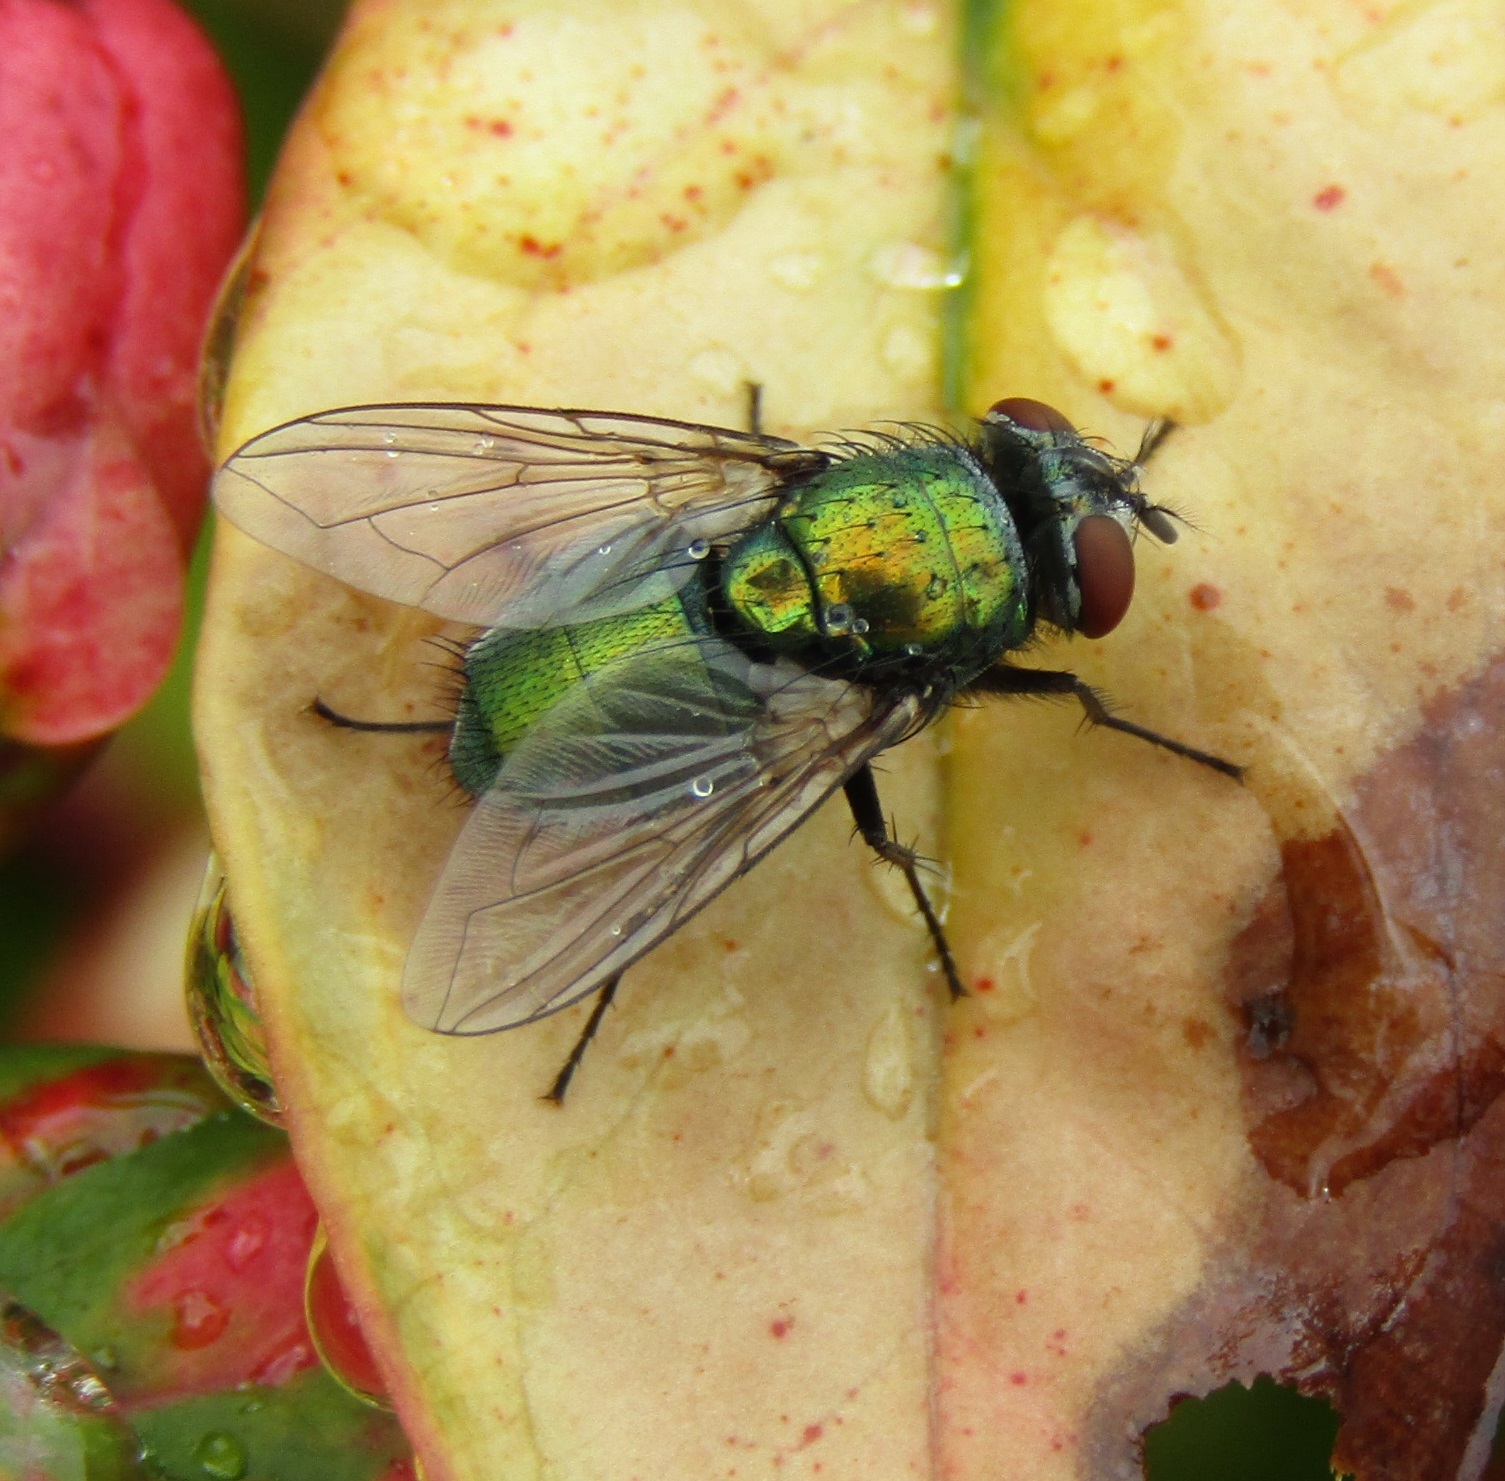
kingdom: Animalia
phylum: Arthropoda
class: Insecta
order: Diptera
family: Calliphoridae
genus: Lucilia
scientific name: Lucilia sericata
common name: Blow fly
